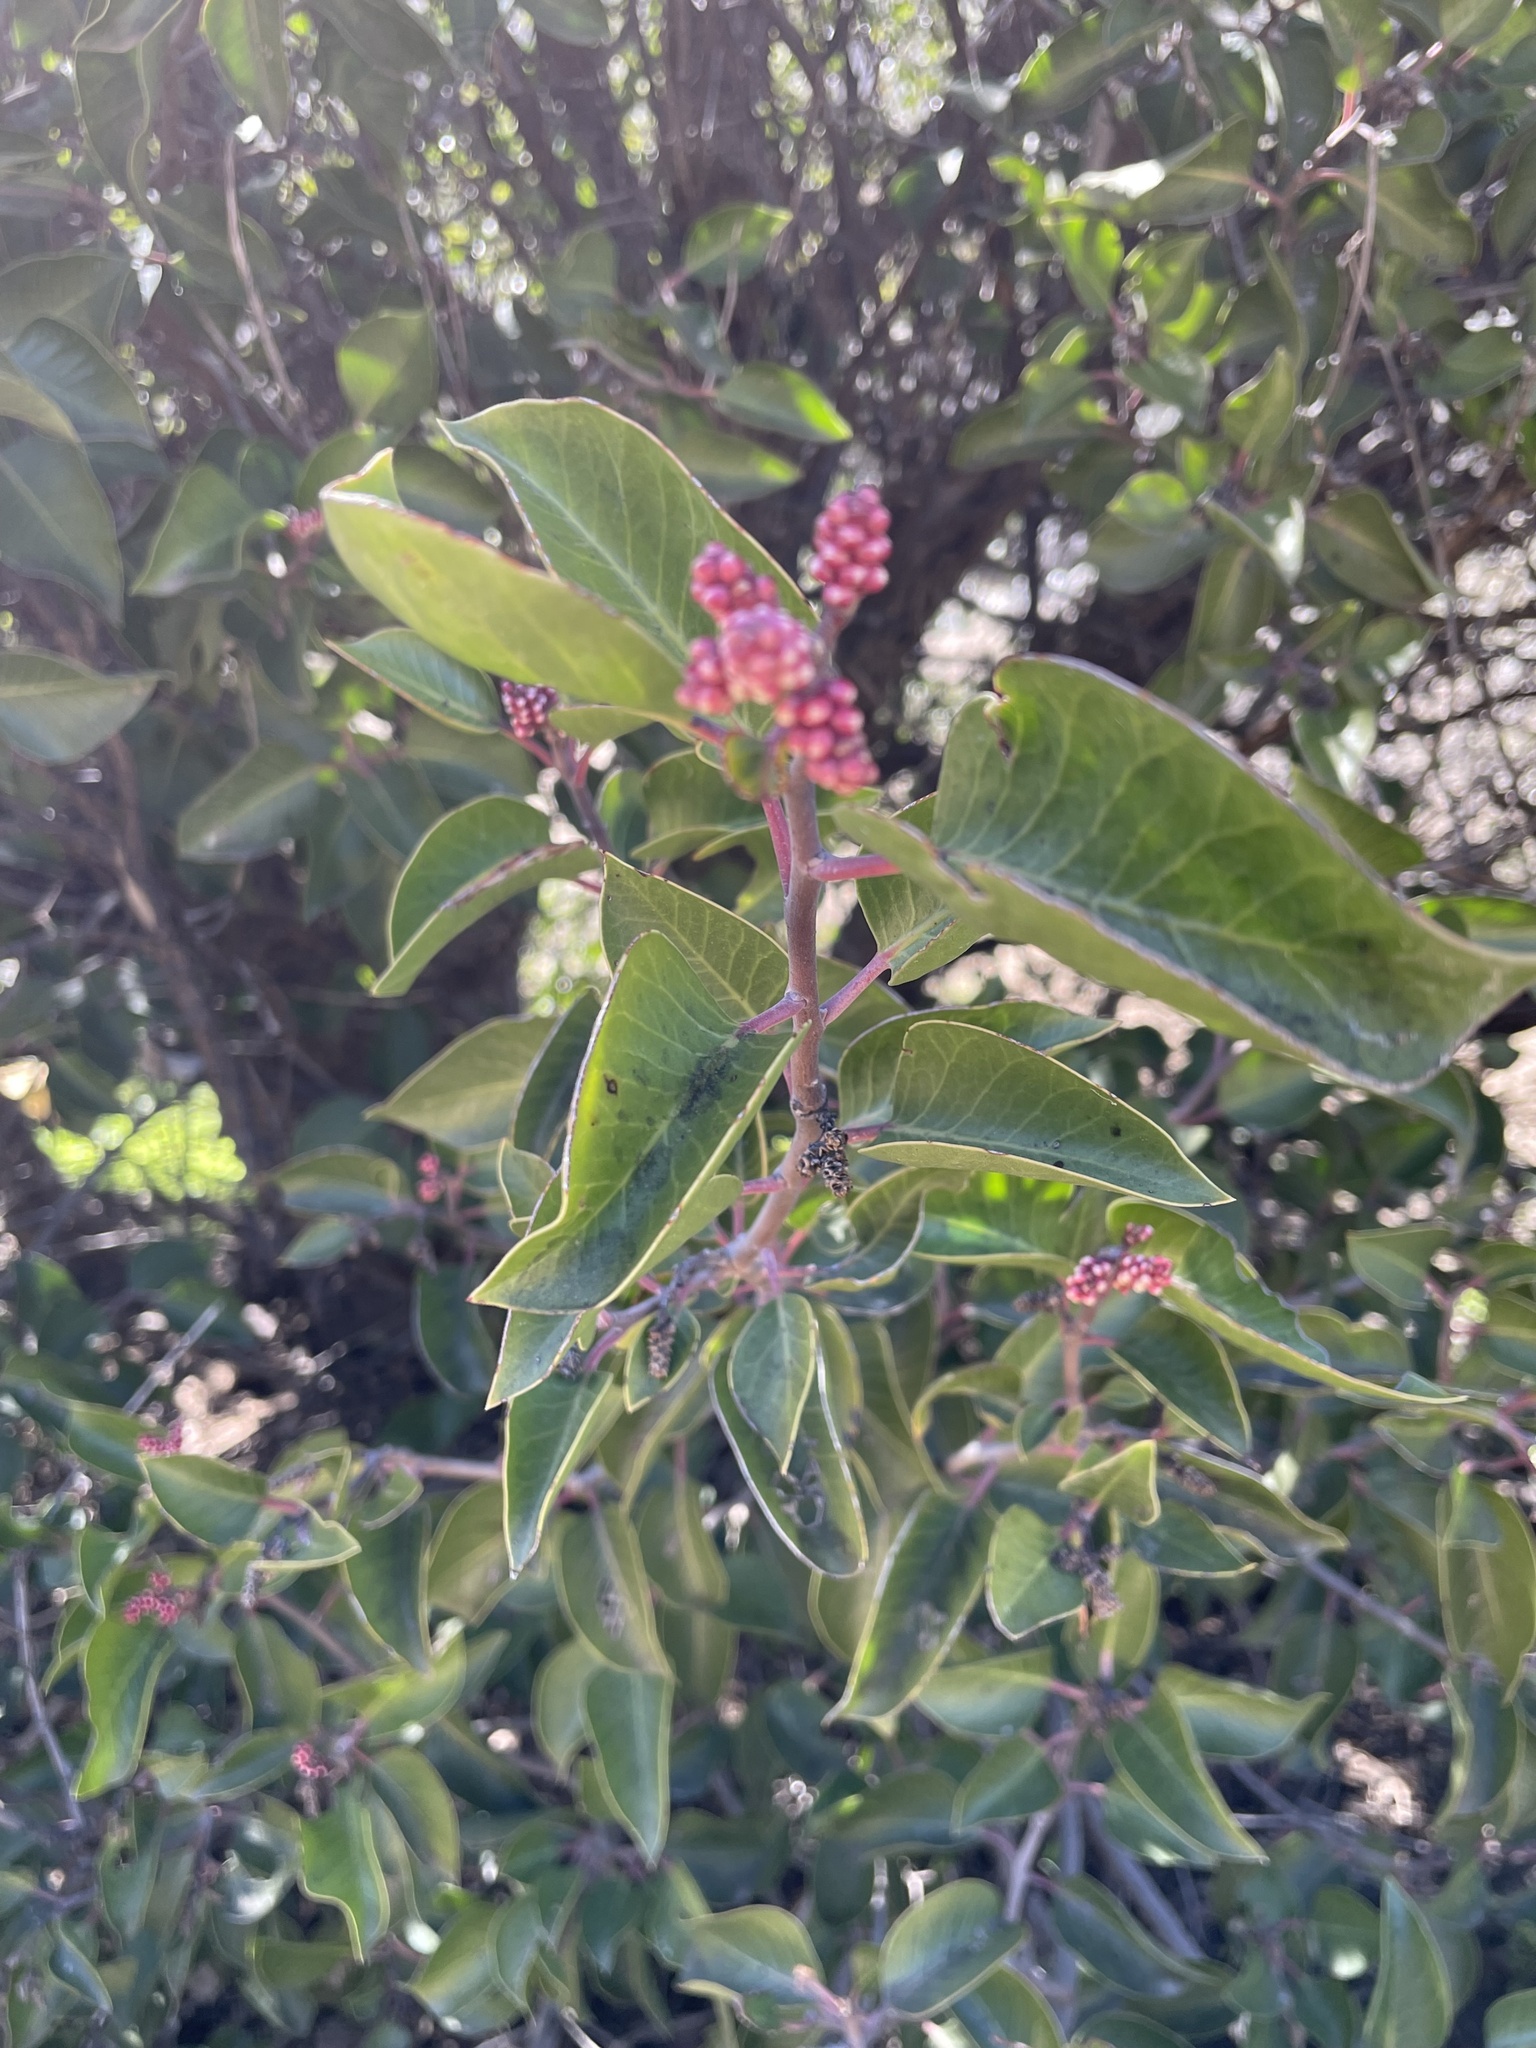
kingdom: Plantae
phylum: Tracheophyta
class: Magnoliopsida
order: Sapindales
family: Anacardiaceae
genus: Rhus
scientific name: Rhus ovata
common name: Sugar sumac
